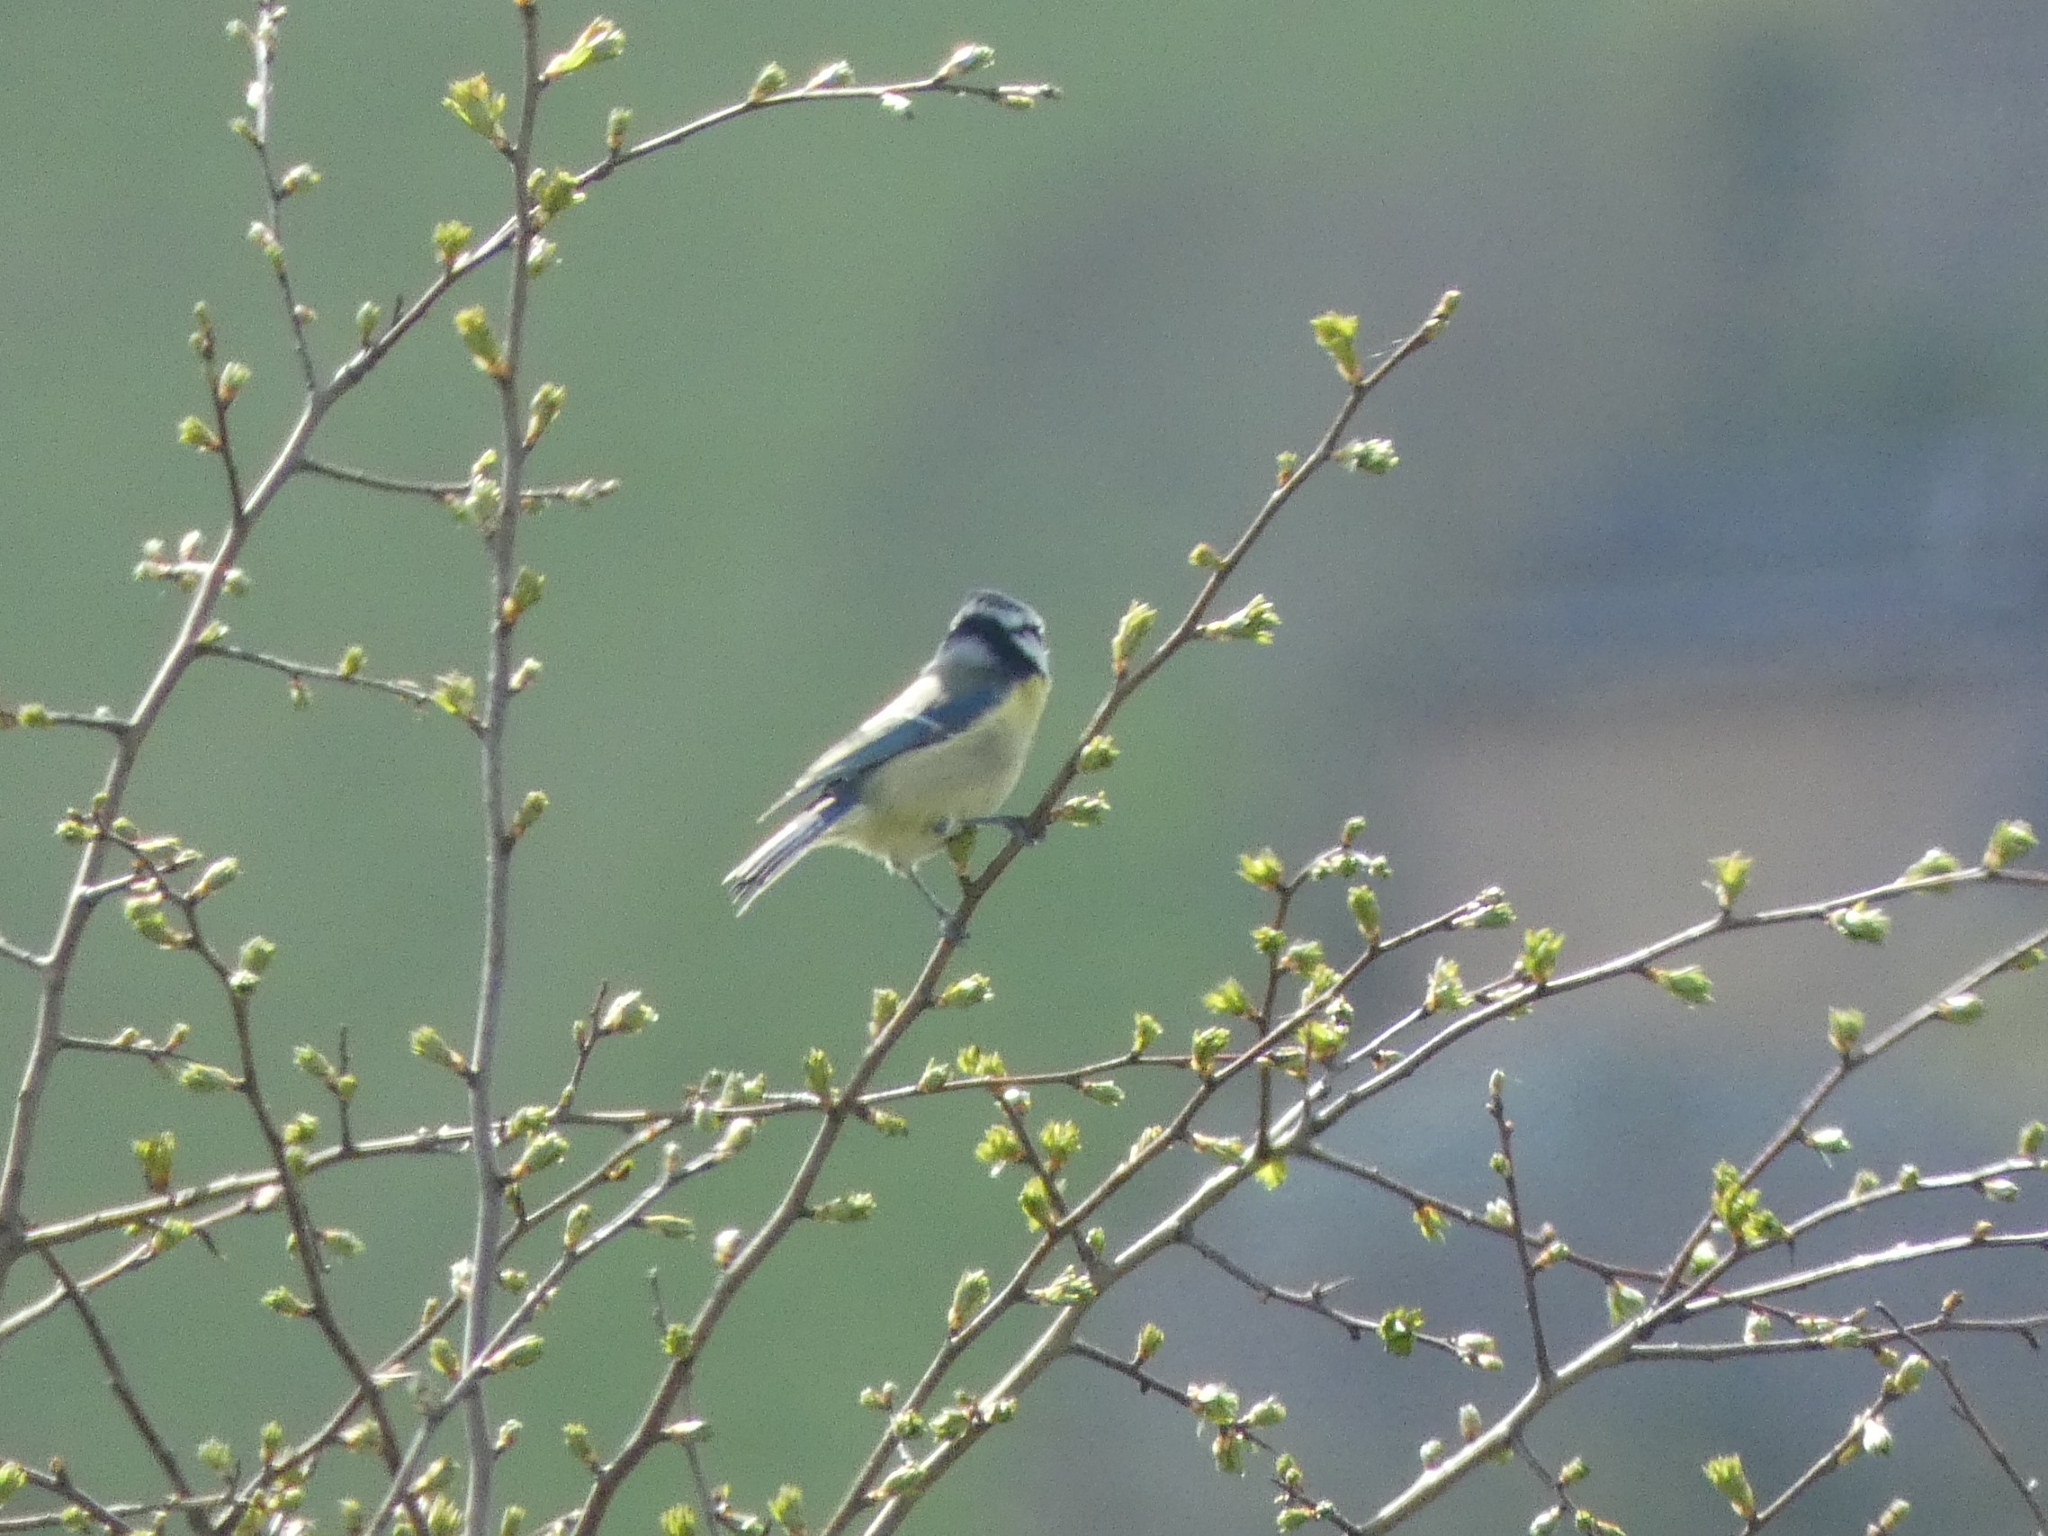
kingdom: Animalia
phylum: Chordata
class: Aves
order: Passeriformes
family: Paridae
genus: Cyanistes
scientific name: Cyanistes caeruleus
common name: Eurasian blue tit
